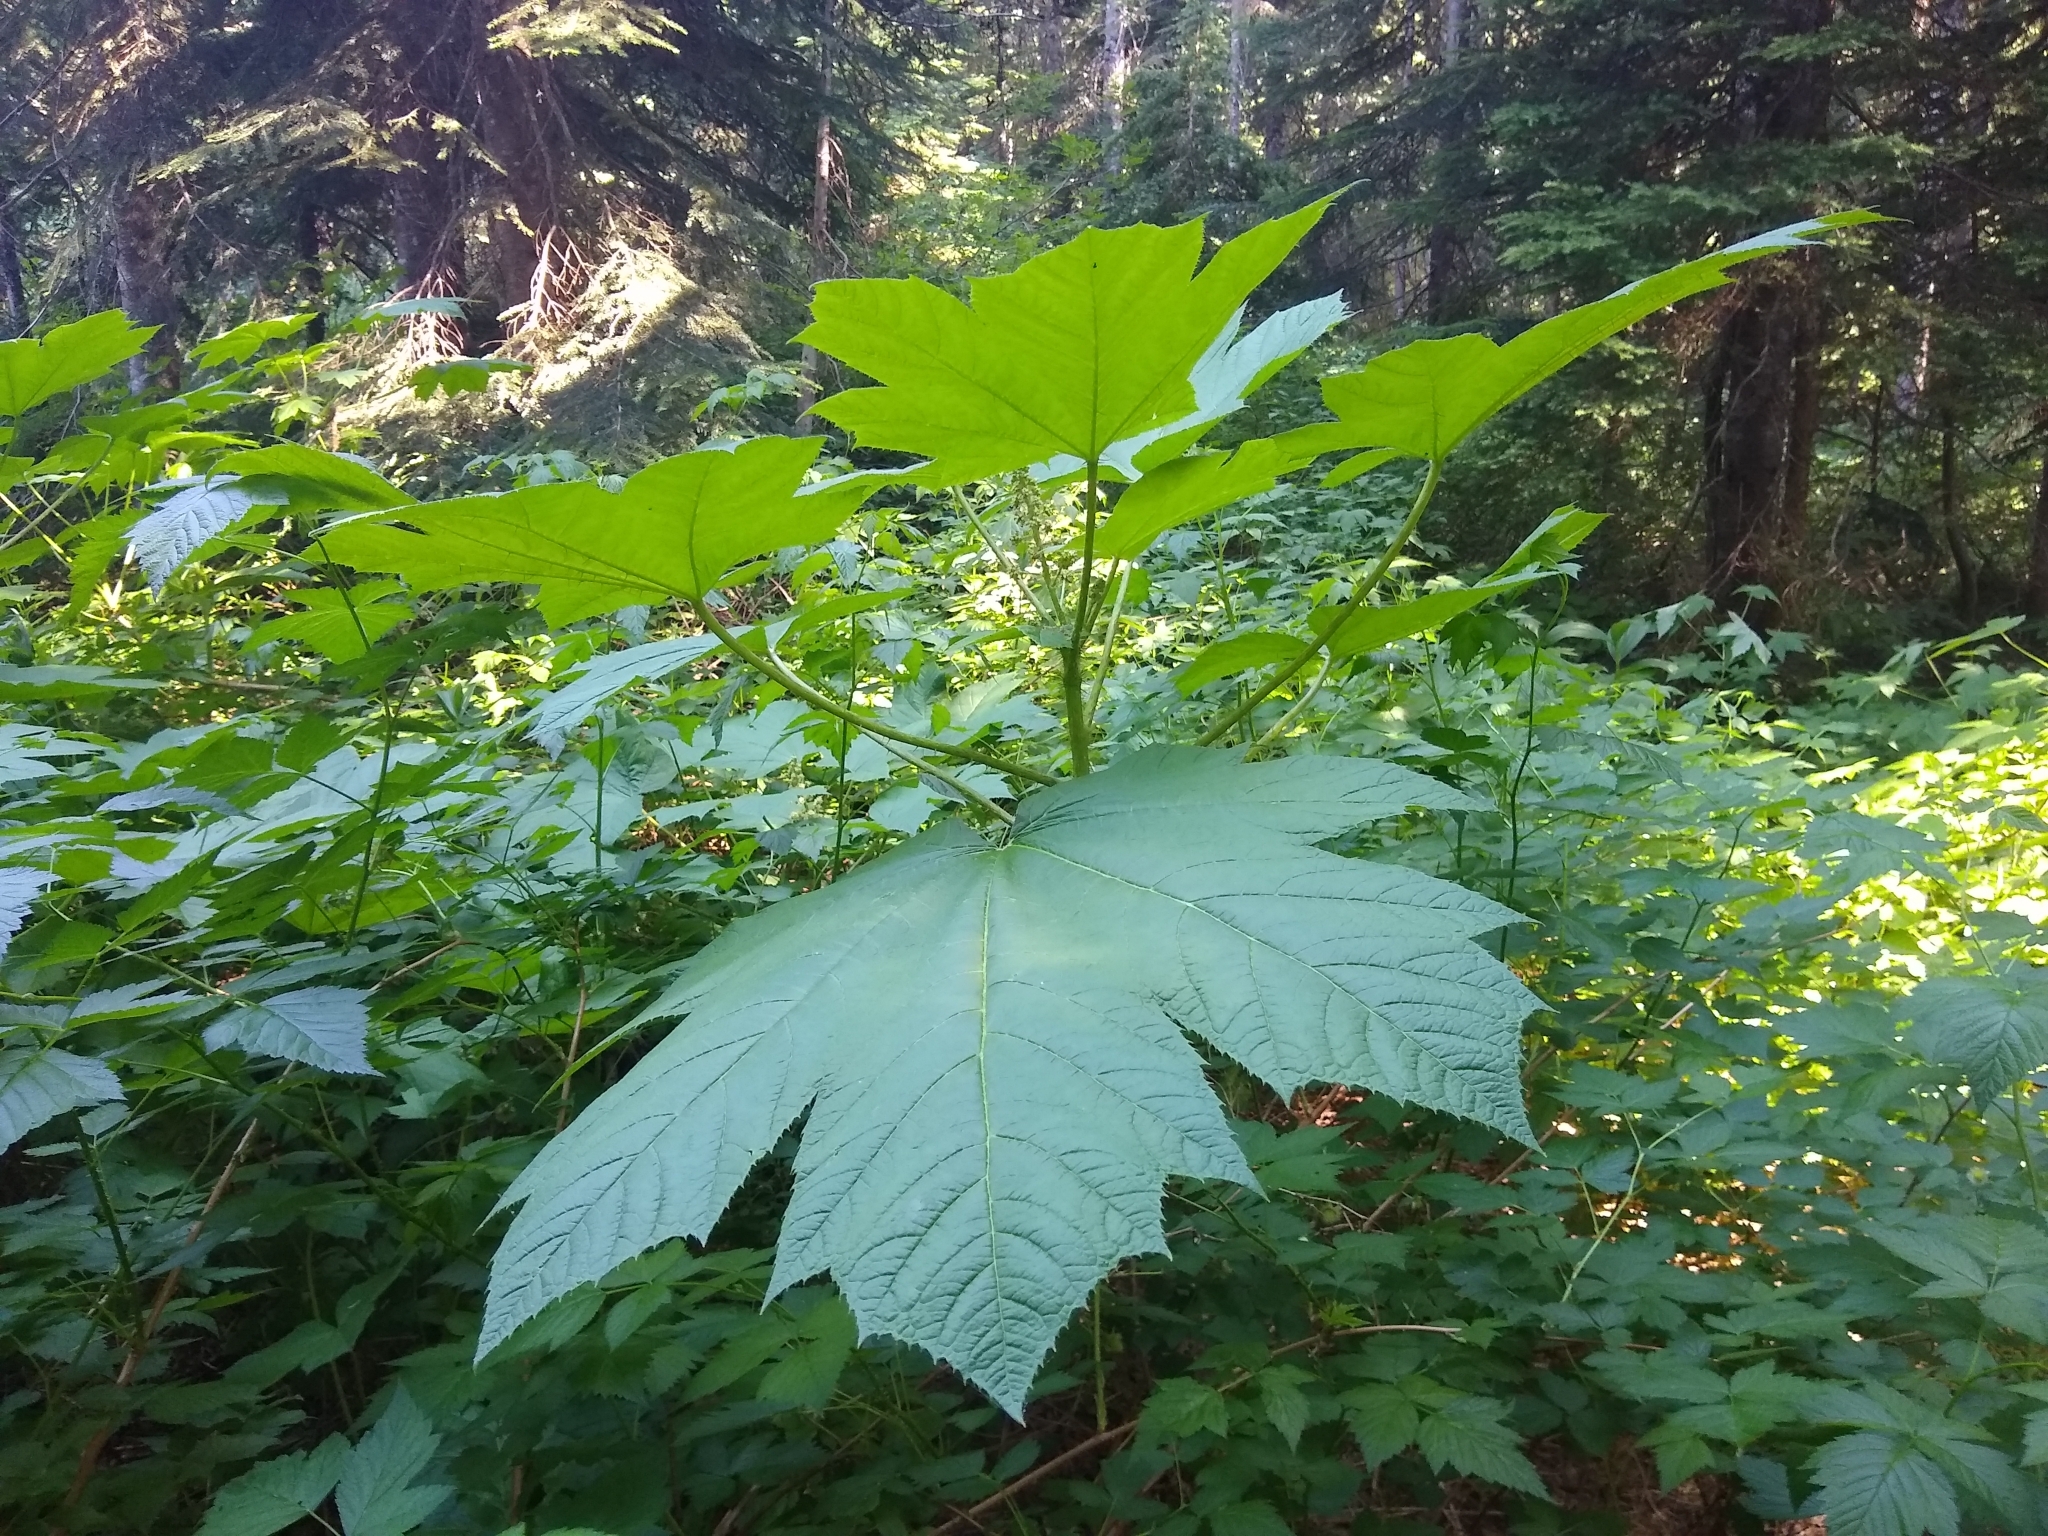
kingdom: Plantae
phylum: Tracheophyta
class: Magnoliopsida
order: Apiales
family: Araliaceae
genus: Oplopanax
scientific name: Oplopanax horridus
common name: Devil's walking-stick
